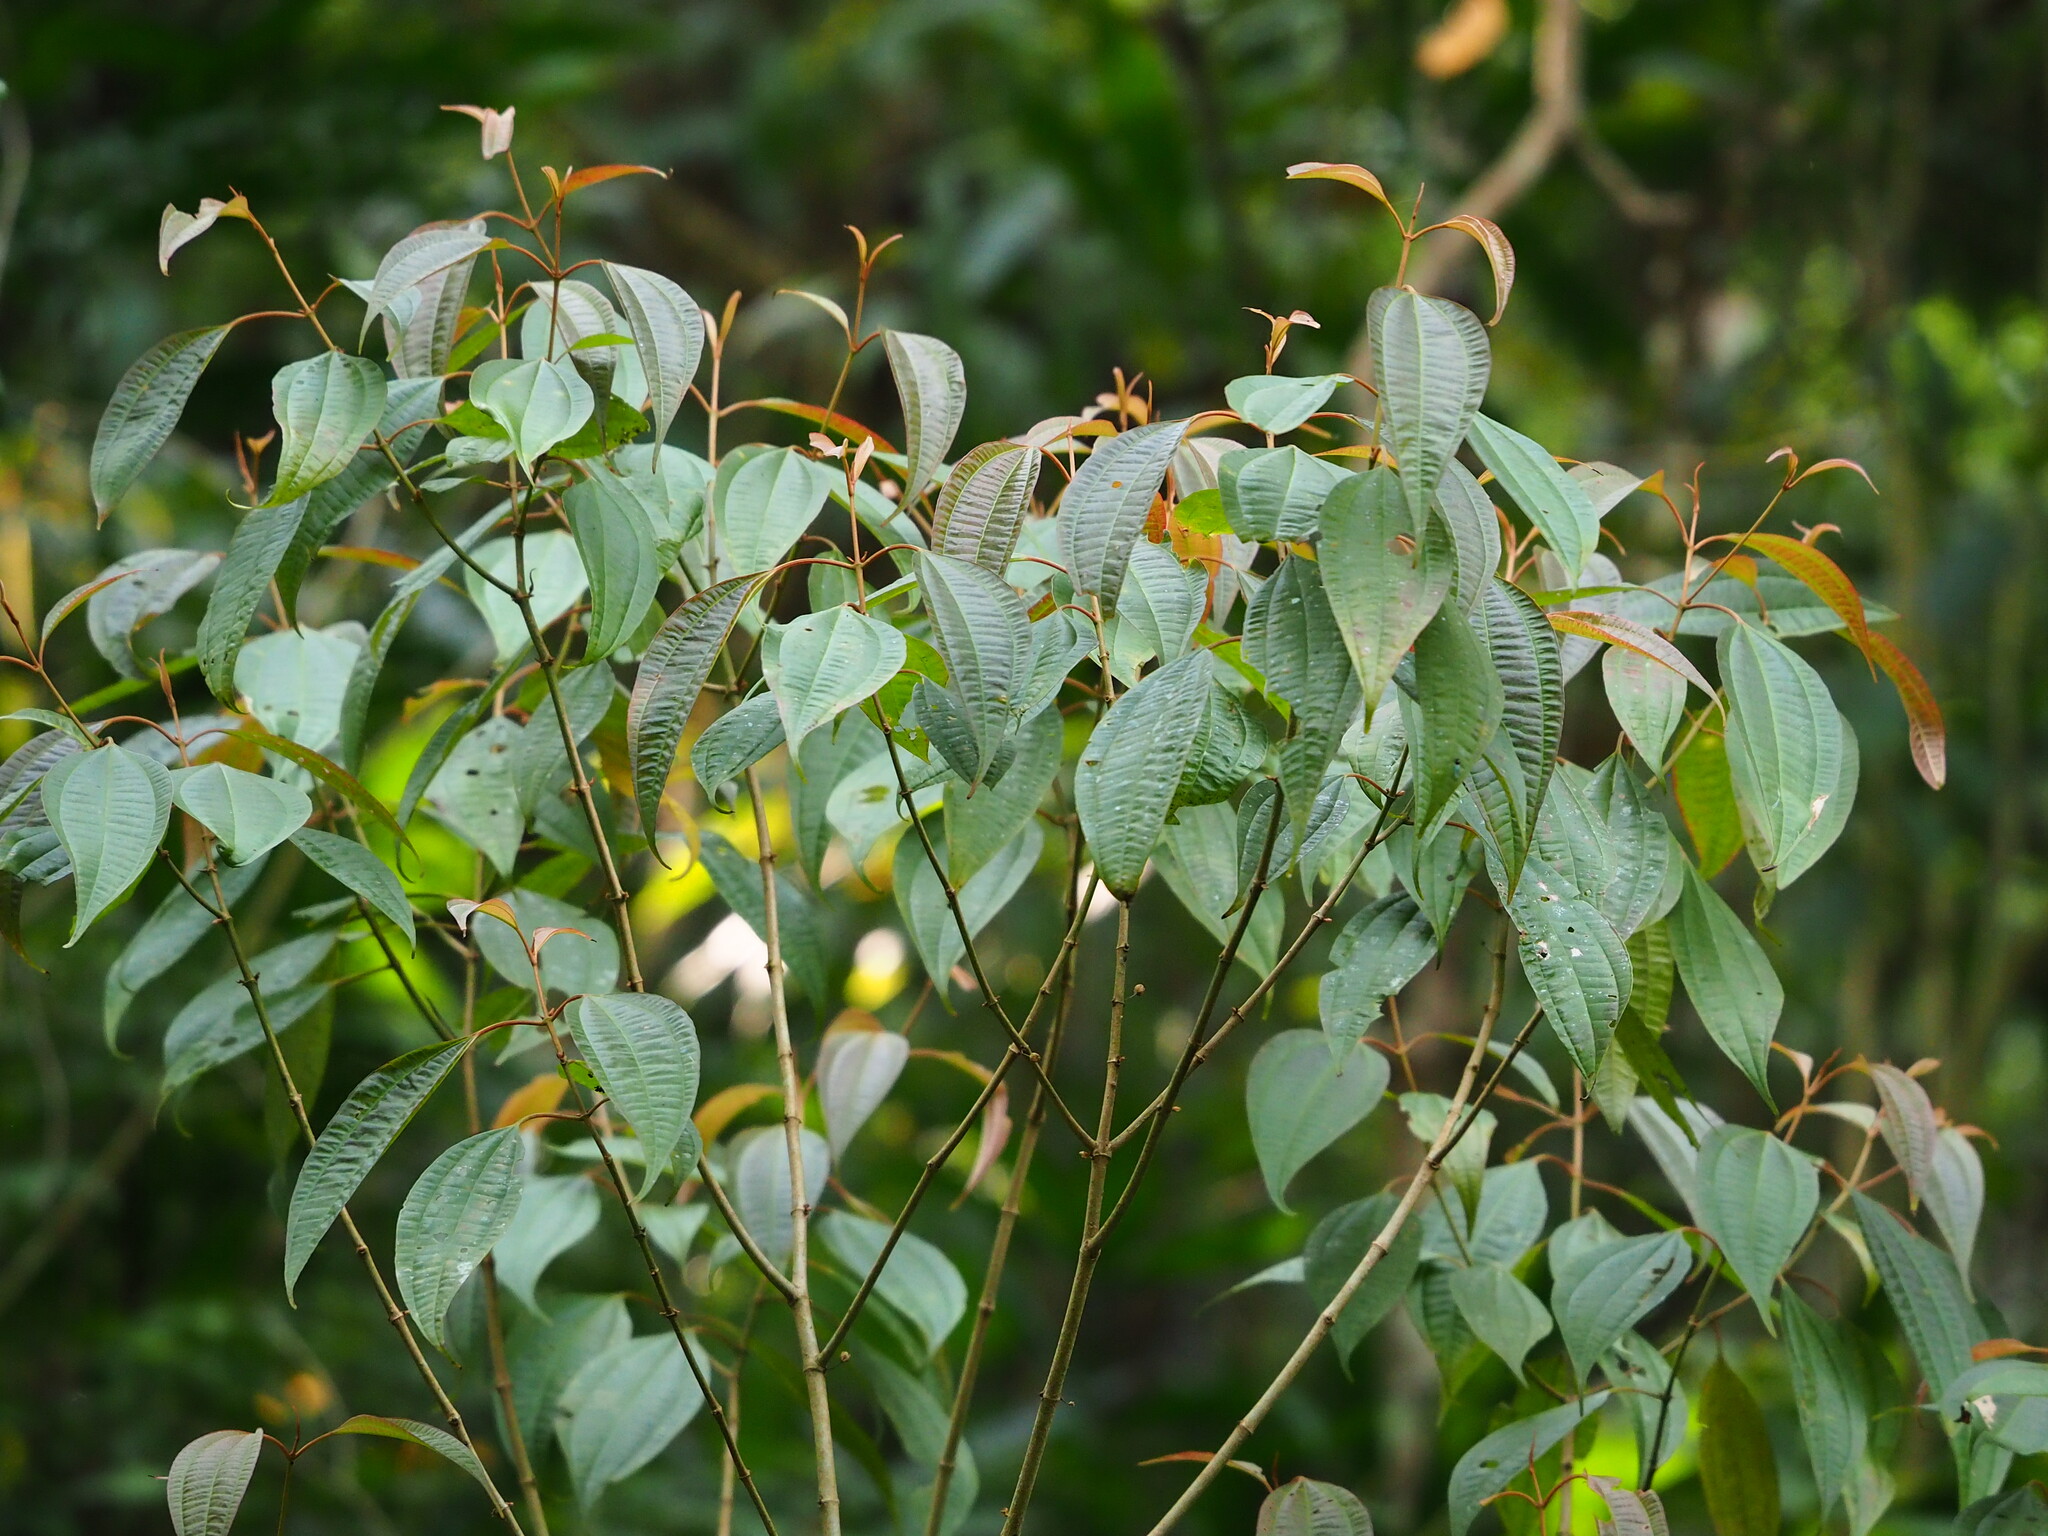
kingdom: Plantae
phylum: Tracheophyta
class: Magnoliopsida
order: Myrtales
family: Melastomataceae
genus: Blastus
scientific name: Blastus cochinchinensis
